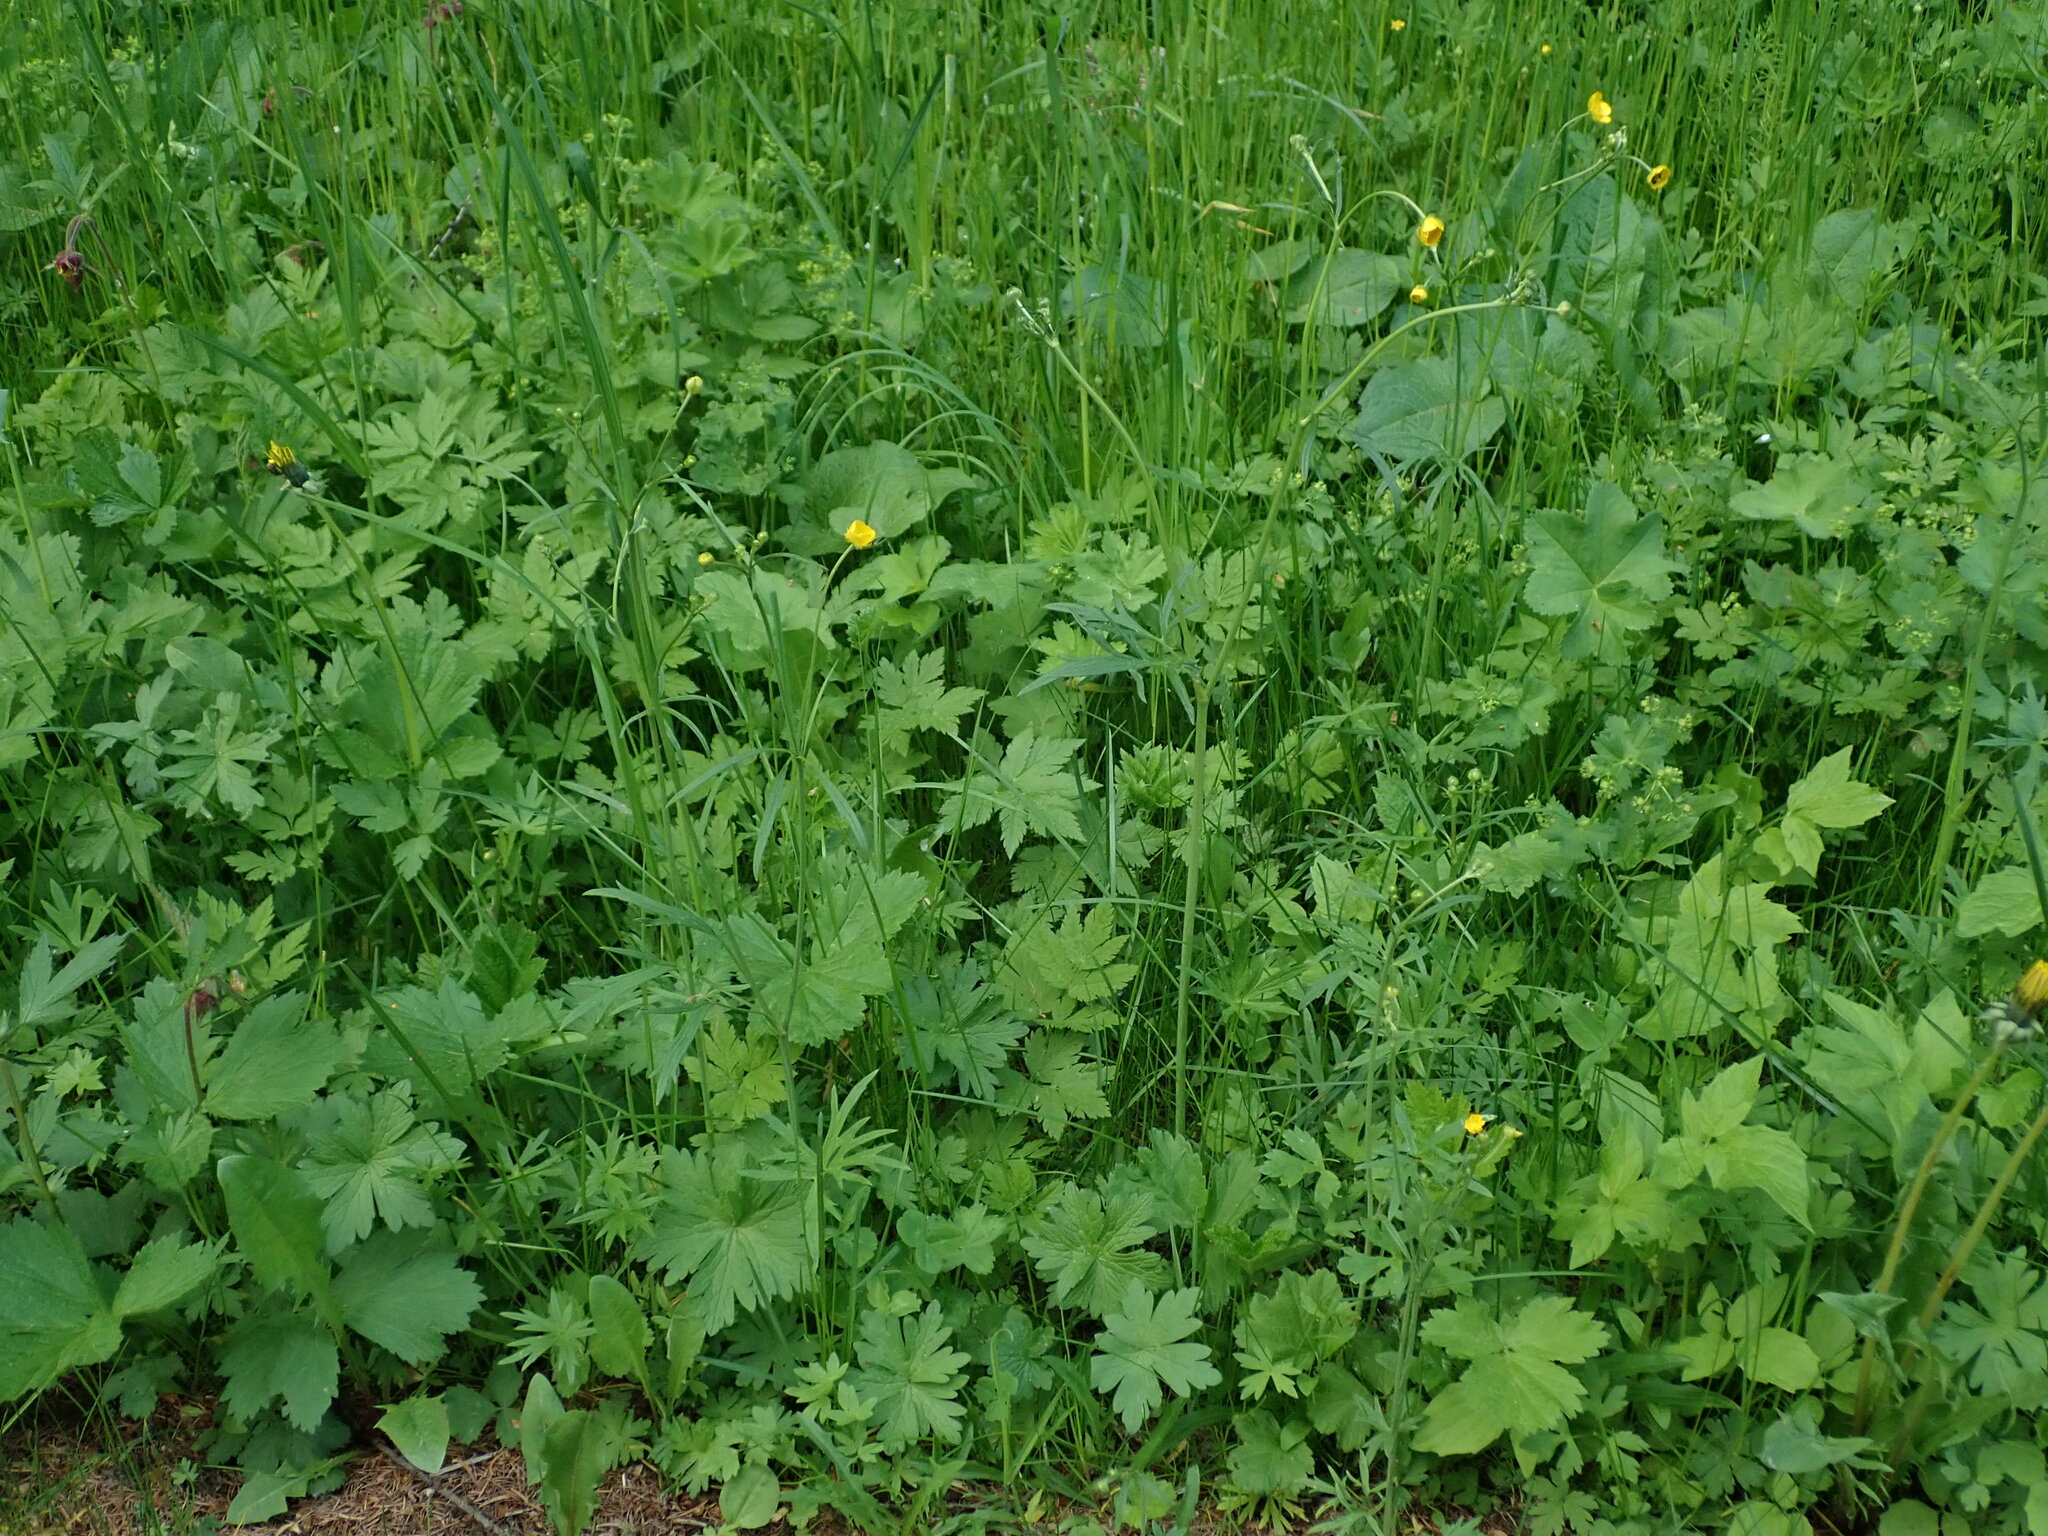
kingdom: Plantae
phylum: Tracheophyta
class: Magnoliopsida
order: Ranunculales
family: Ranunculaceae
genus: Ranunculus
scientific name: Ranunculus acris
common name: Meadow buttercup
